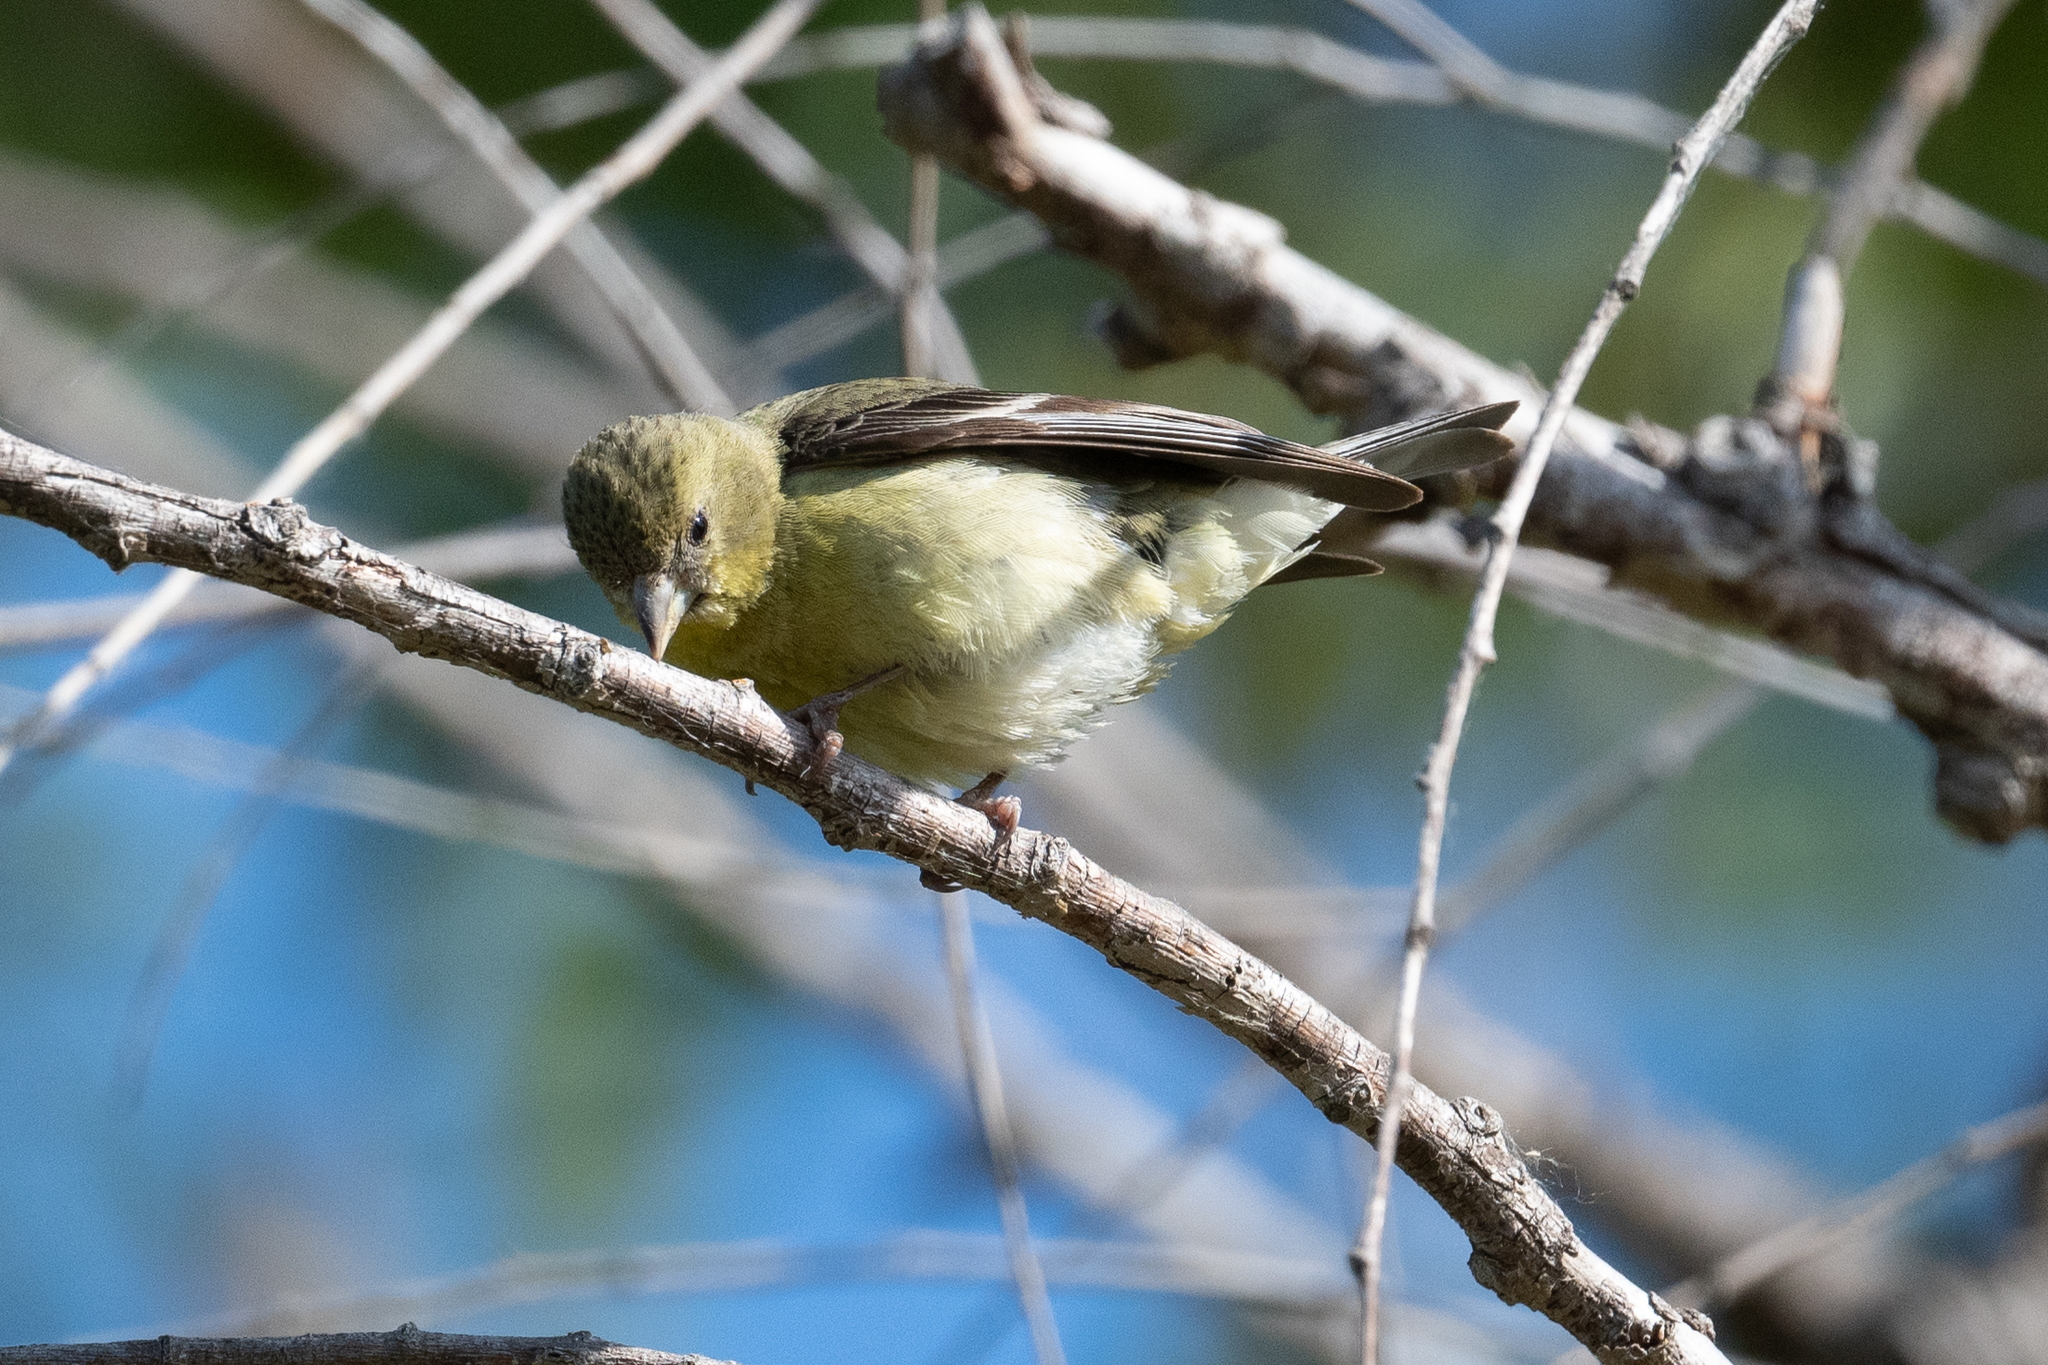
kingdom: Animalia
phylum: Chordata
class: Aves
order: Passeriformes
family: Fringillidae
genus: Spinus
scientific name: Spinus psaltria
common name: Lesser goldfinch
